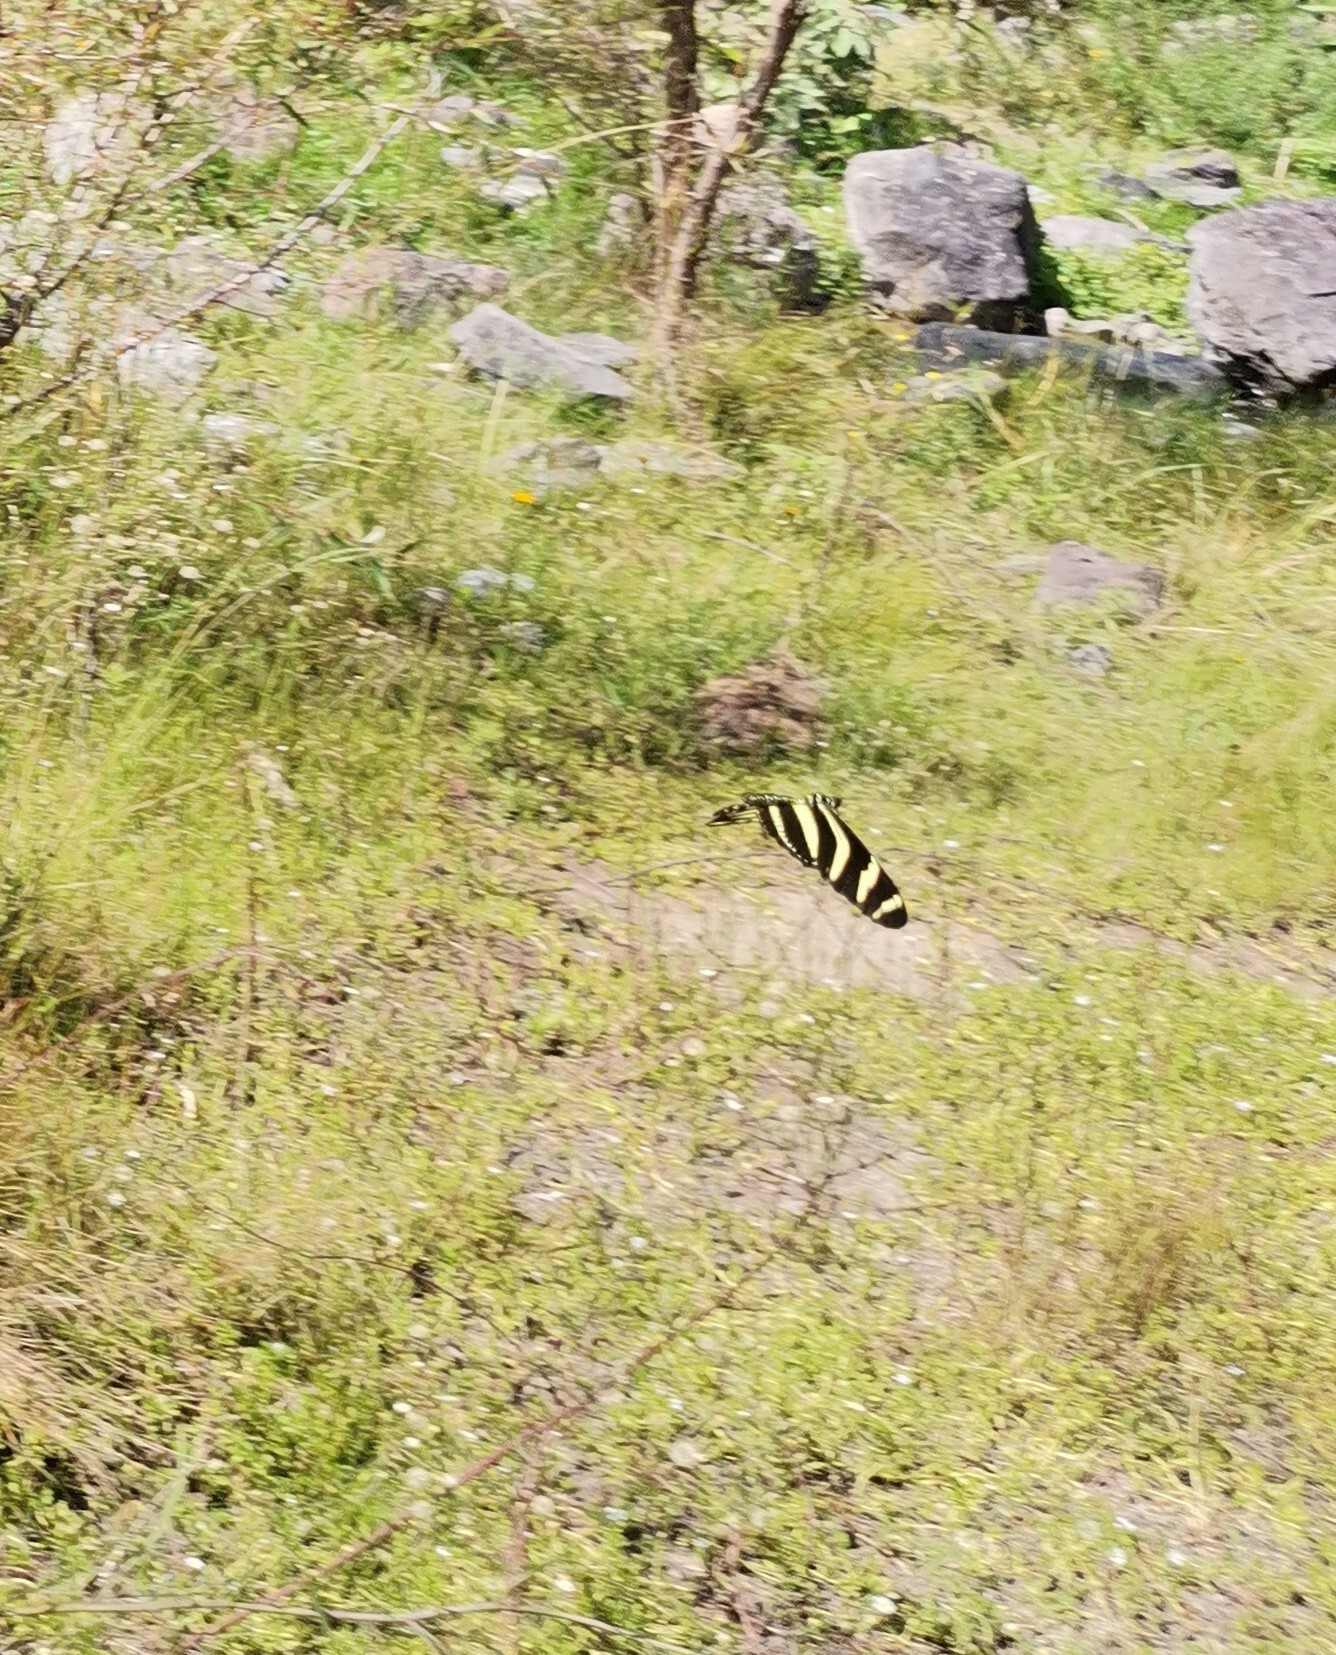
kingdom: Animalia
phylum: Arthropoda
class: Insecta
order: Lepidoptera
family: Nymphalidae
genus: Heliconius
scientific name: Heliconius charithonia
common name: Zebra long wing
